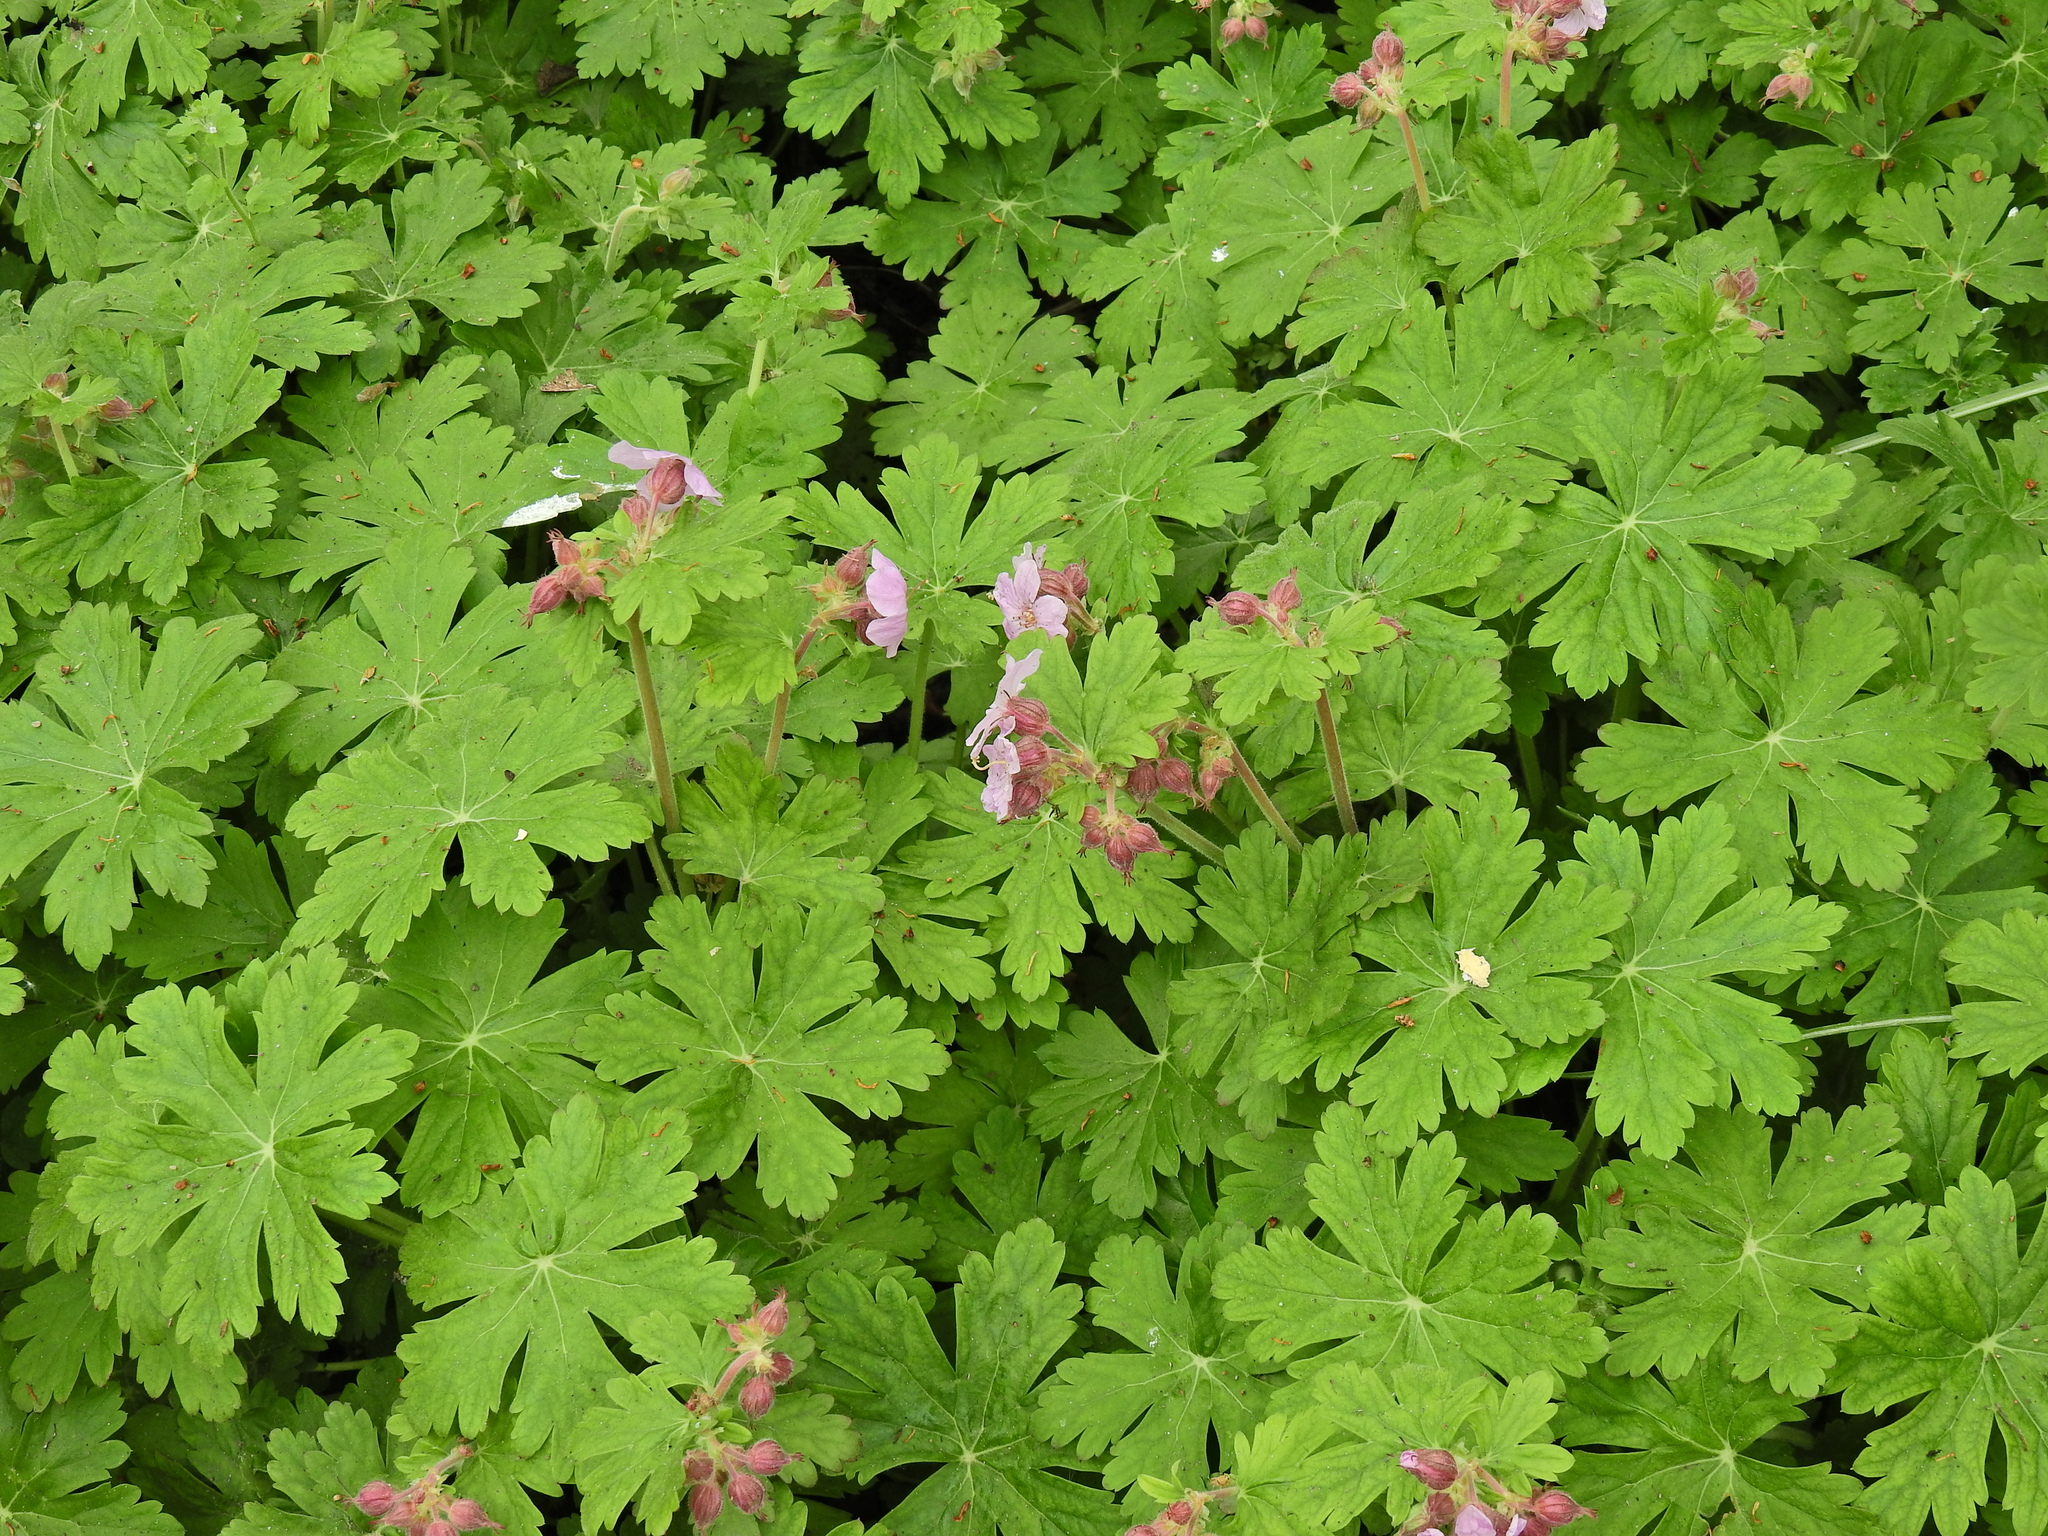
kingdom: Plantae
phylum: Tracheophyta
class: Magnoliopsida
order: Geraniales
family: Geraniaceae
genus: Geranium
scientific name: Geranium macrorrhizum
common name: Rock crane's-bill
